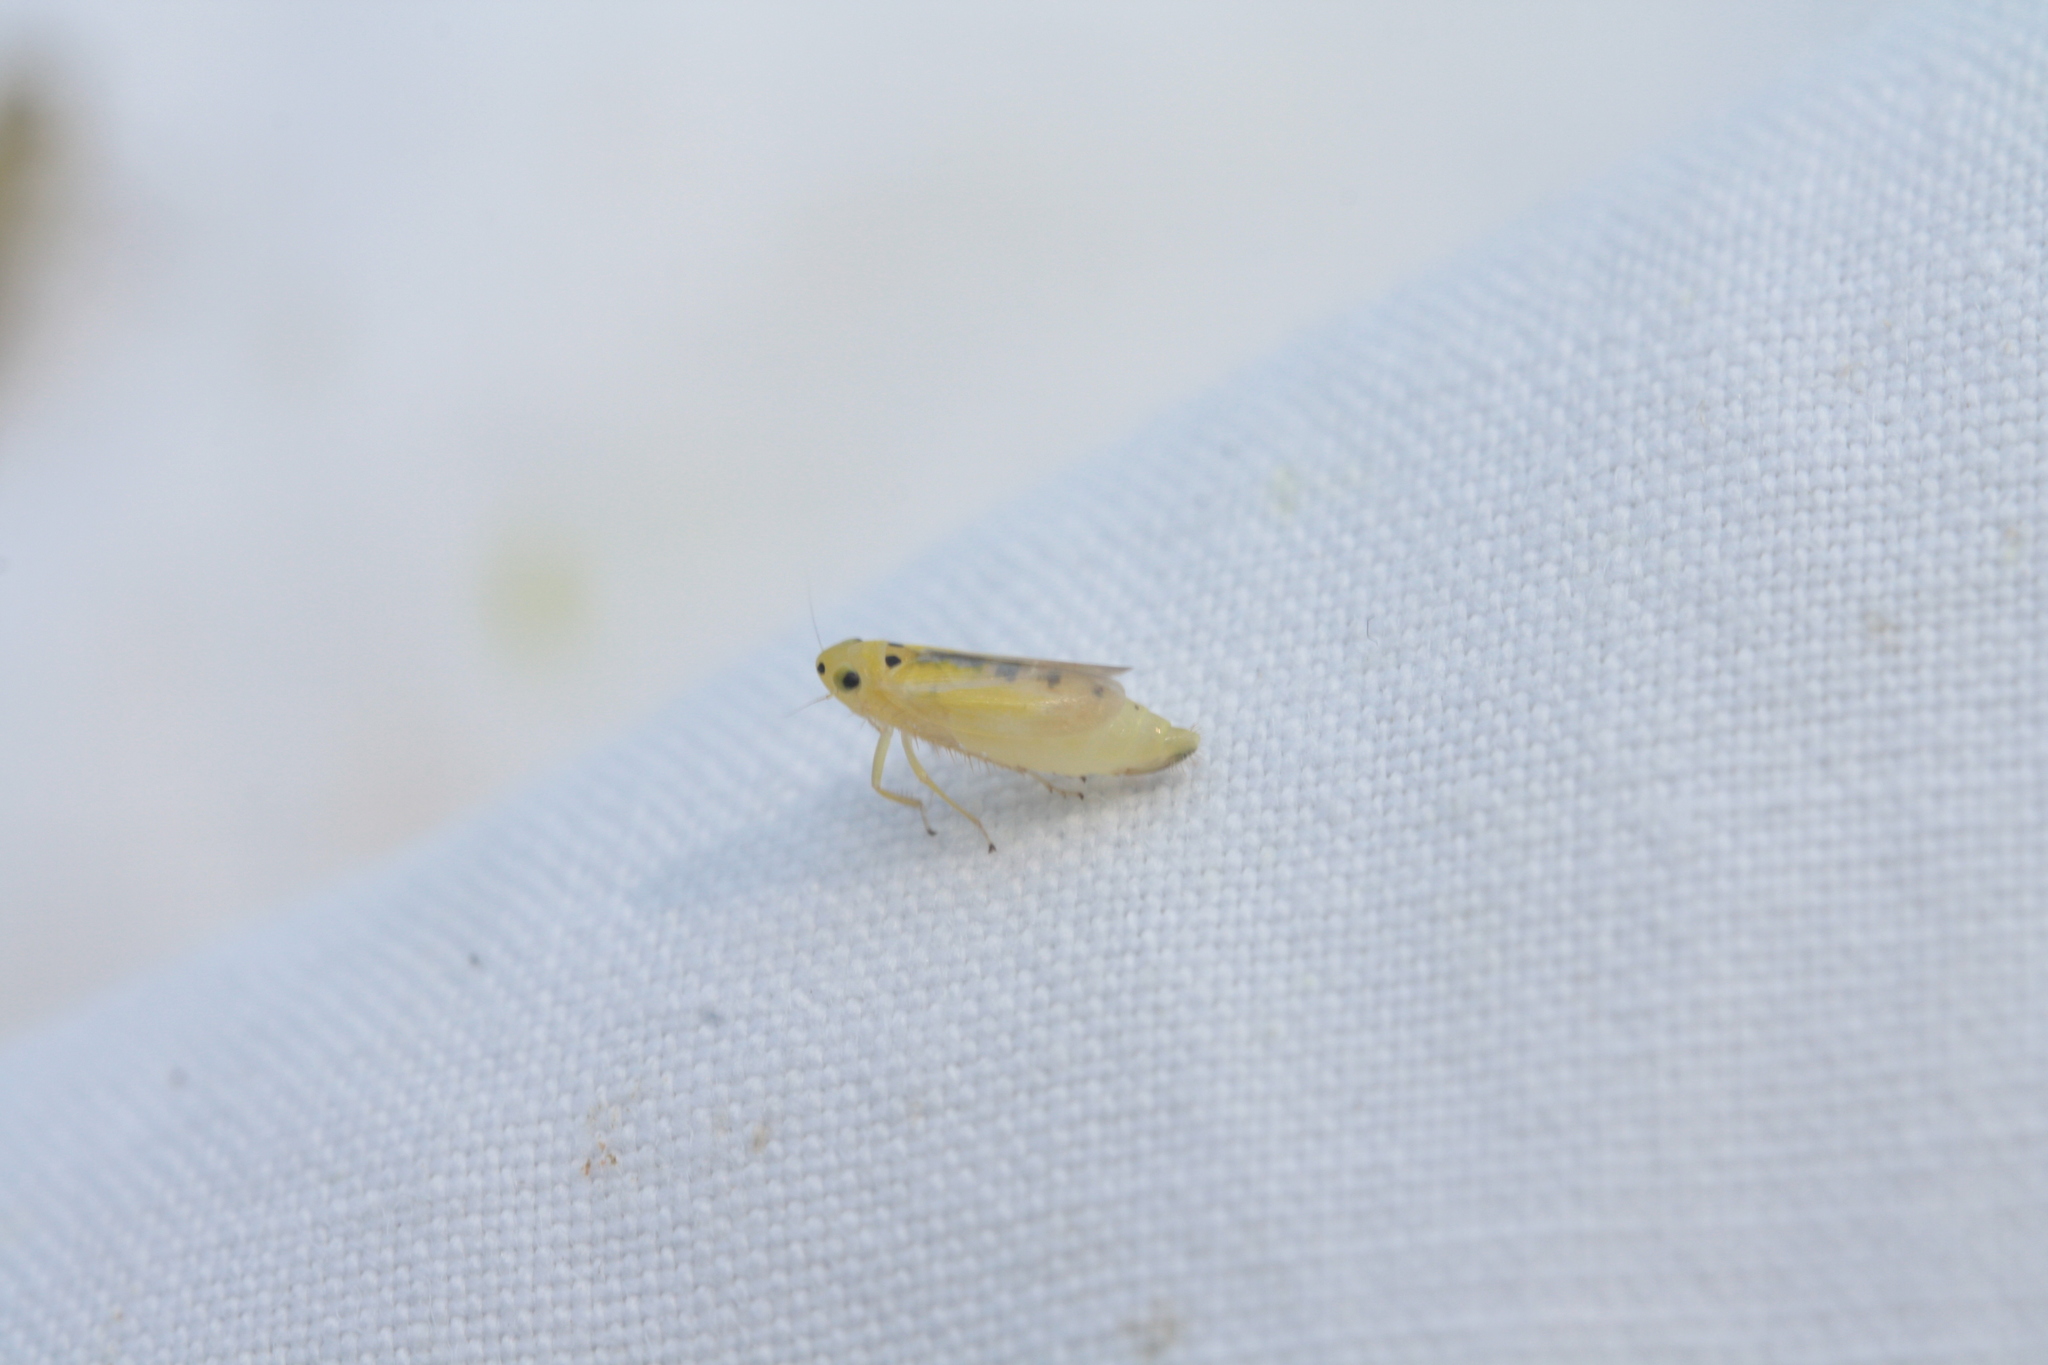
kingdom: Animalia
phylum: Arthropoda
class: Insecta
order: Hemiptera
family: Cicadellidae
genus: Macrosteles
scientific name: Macrosteles septemnotatus
